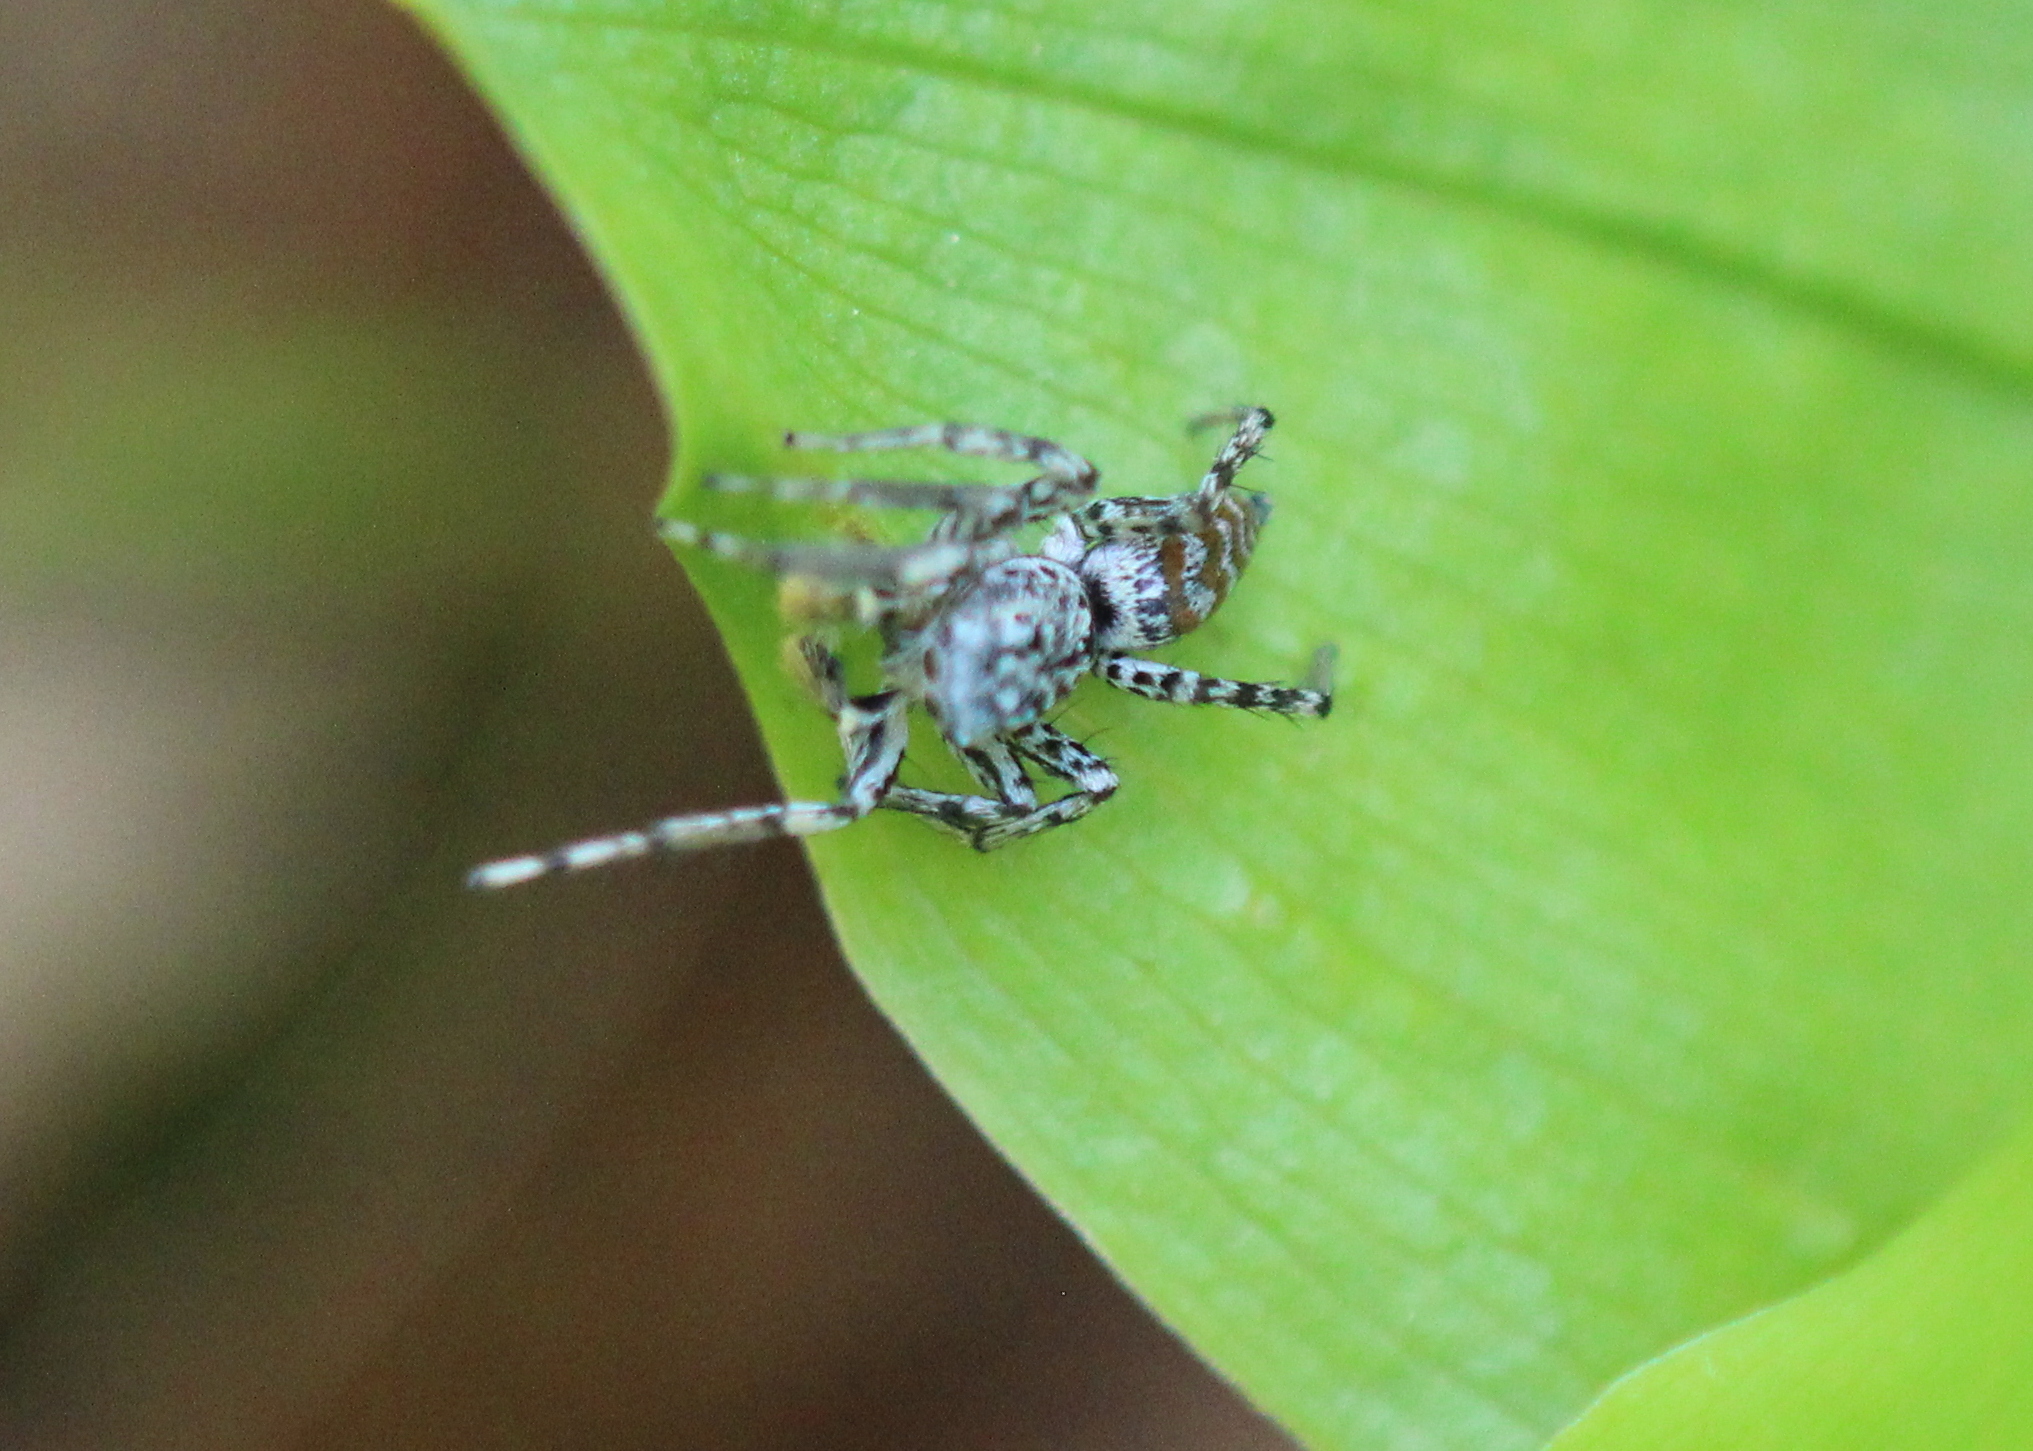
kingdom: Animalia
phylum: Arthropoda
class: Arachnida
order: Araneae
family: Salticidae
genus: Maevia
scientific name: Maevia inclemens
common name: Dimorphic jumper
